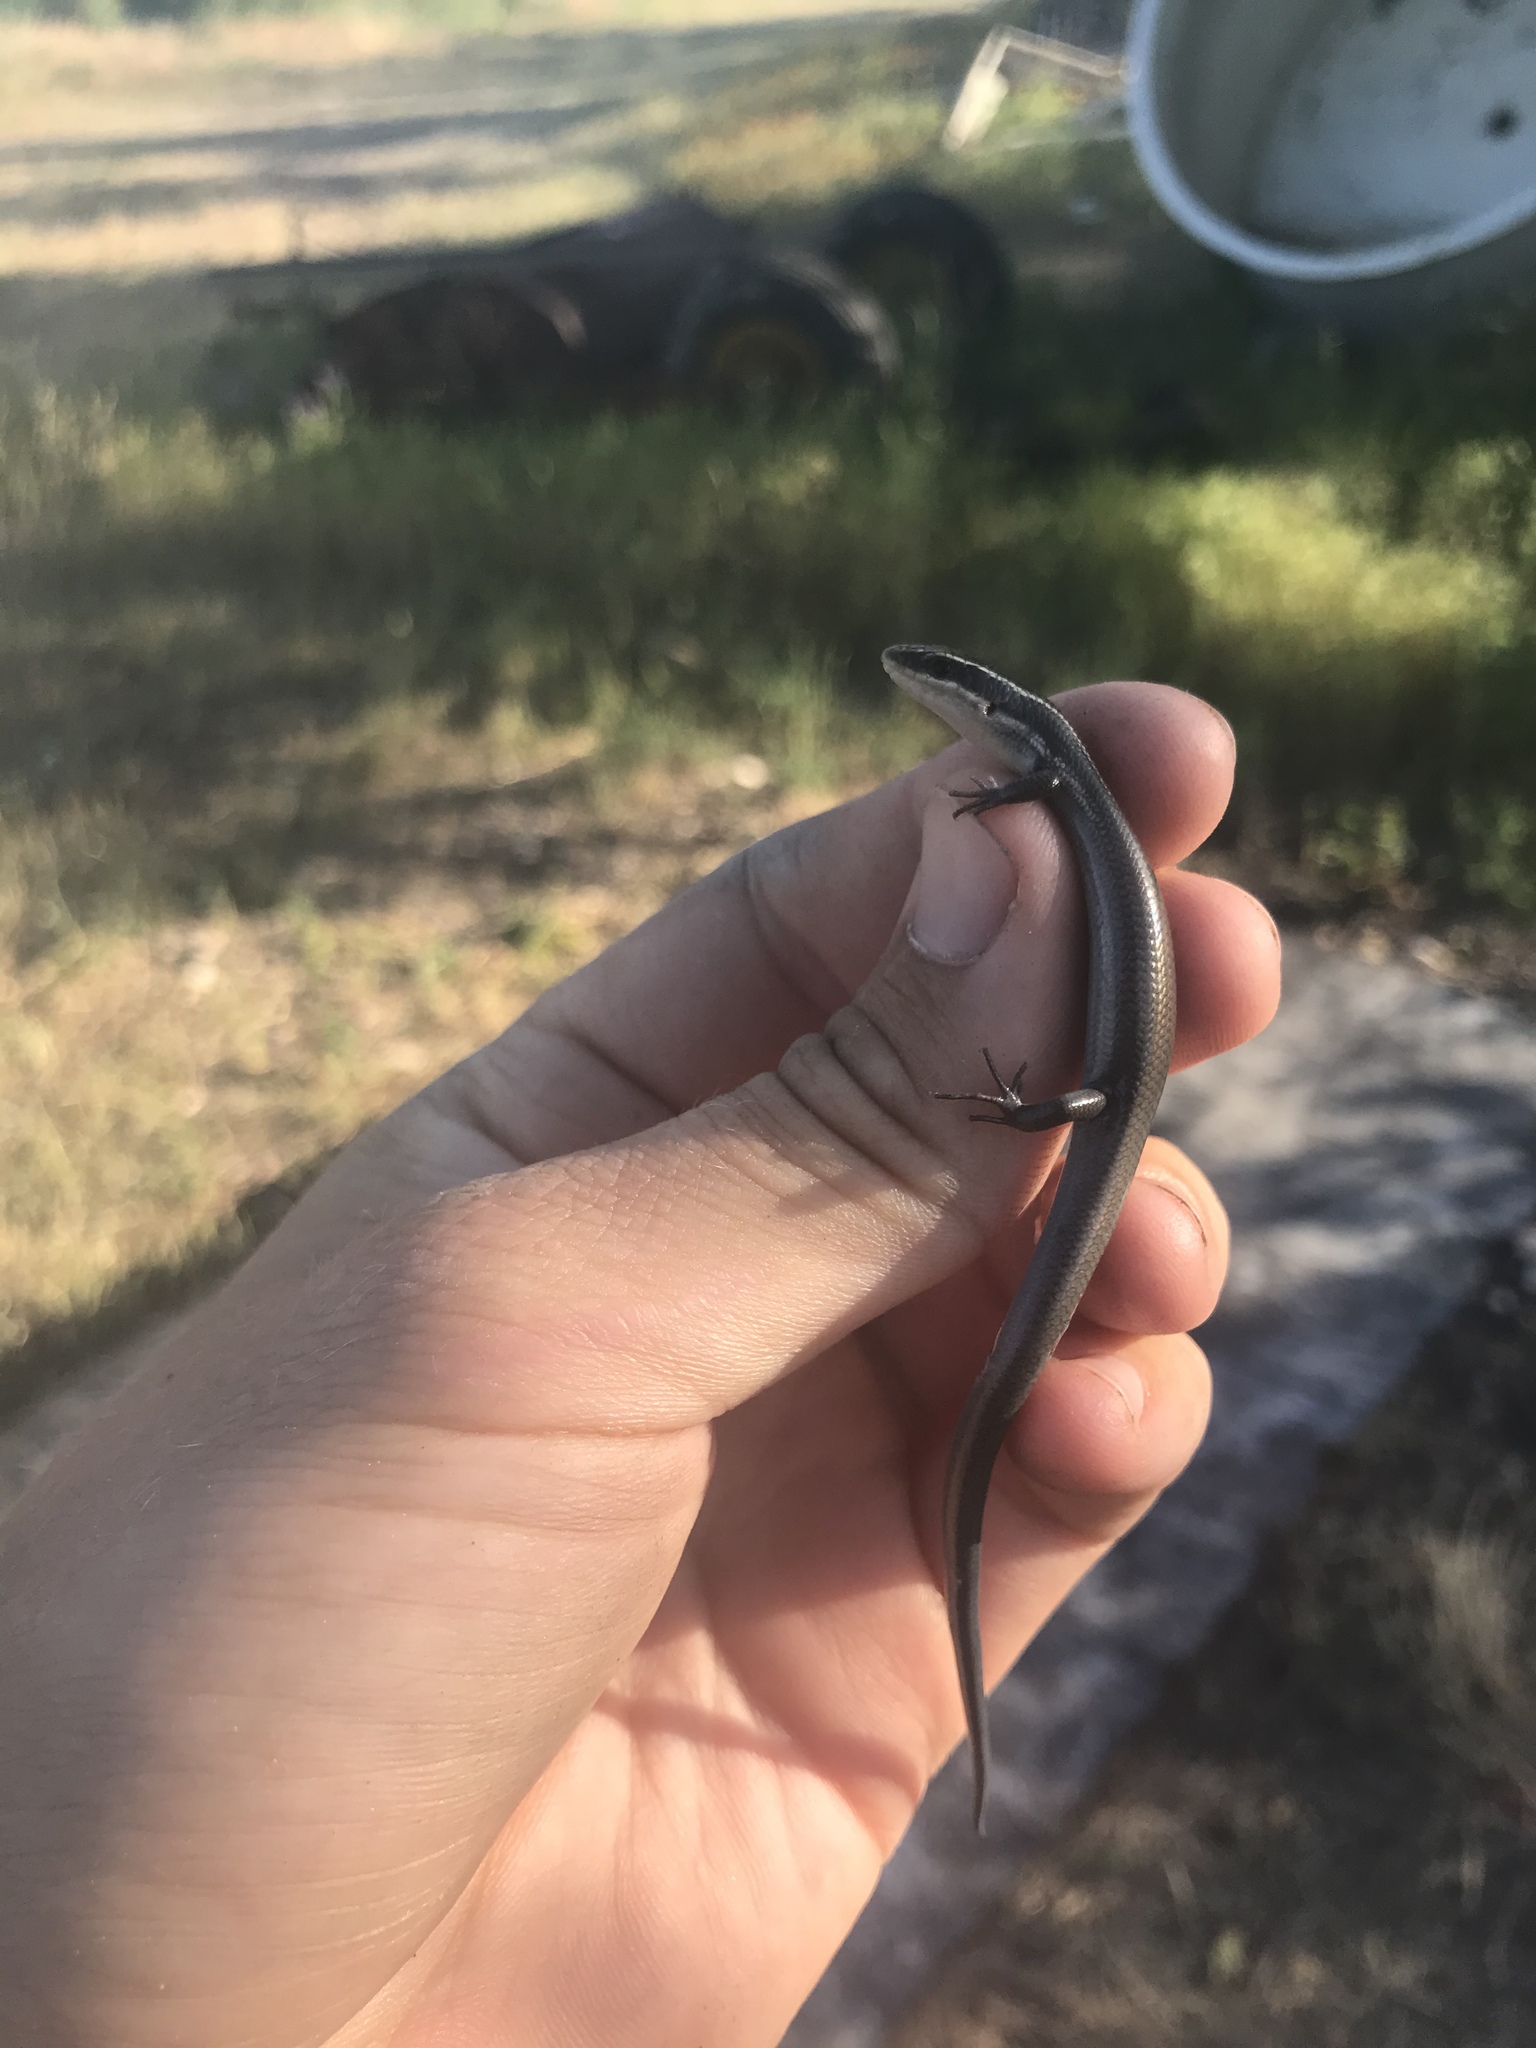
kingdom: Animalia
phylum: Chordata
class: Squamata
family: Scincidae
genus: Plestiodon
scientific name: Plestiodon tetragrammus
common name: Four-lined skink
